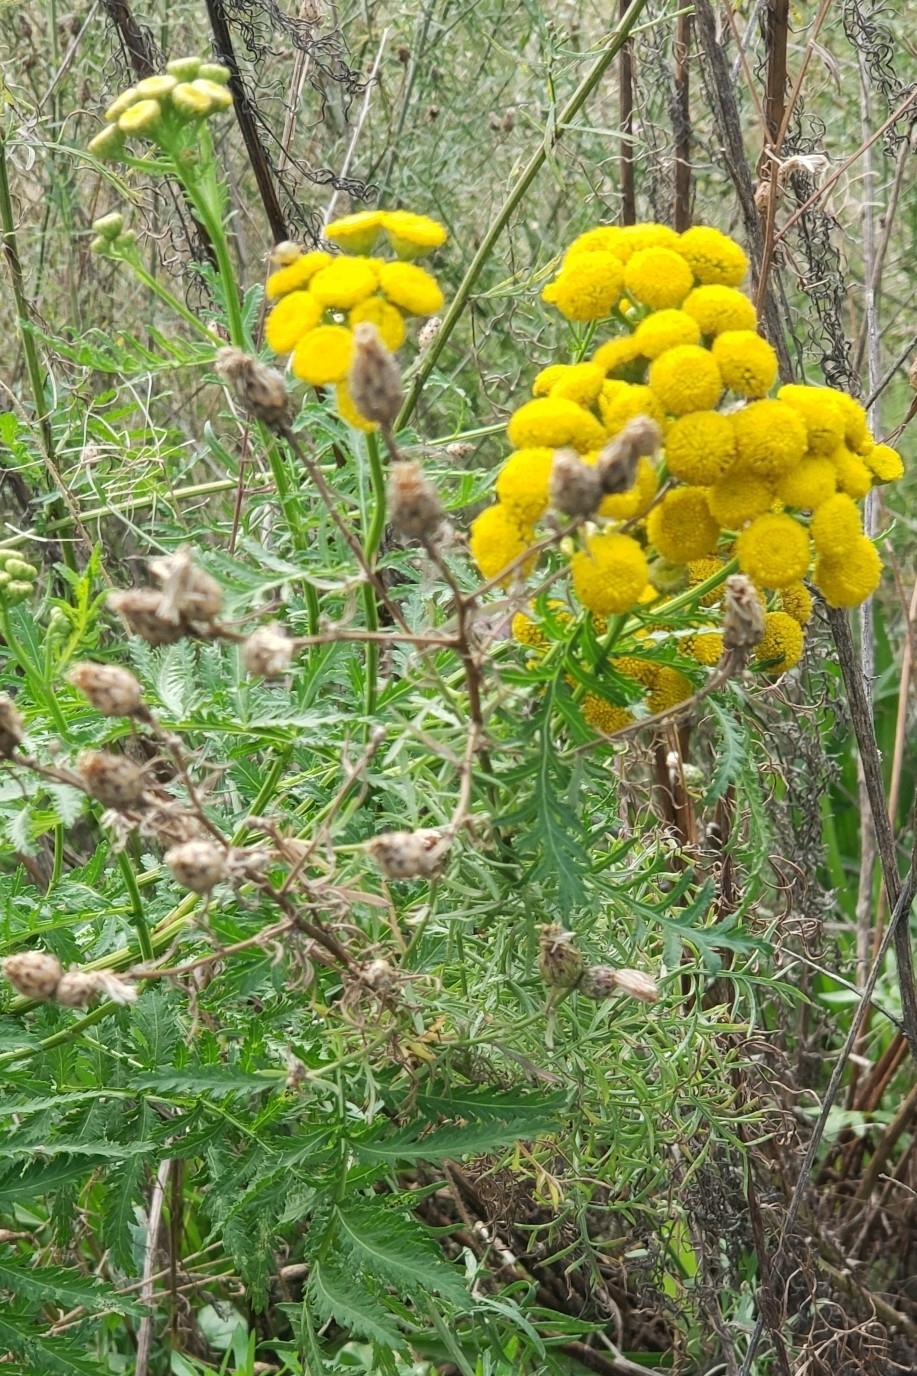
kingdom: Plantae
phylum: Tracheophyta
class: Magnoliopsida
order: Asterales
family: Asteraceae
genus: Tanacetum
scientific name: Tanacetum vulgare
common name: Common tansy
